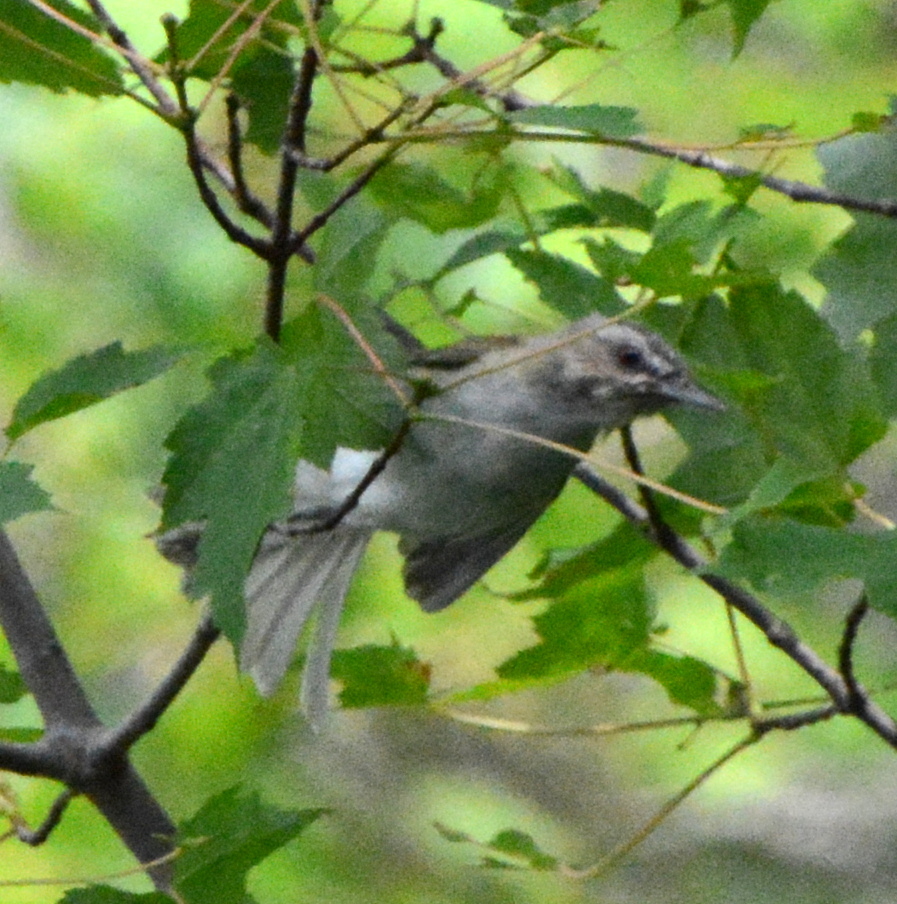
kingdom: Animalia
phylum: Chordata
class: Aves
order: Passeriformes
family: Vireonidae
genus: Vireo
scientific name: Vireo olivaceus
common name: Red-eyed vireo
